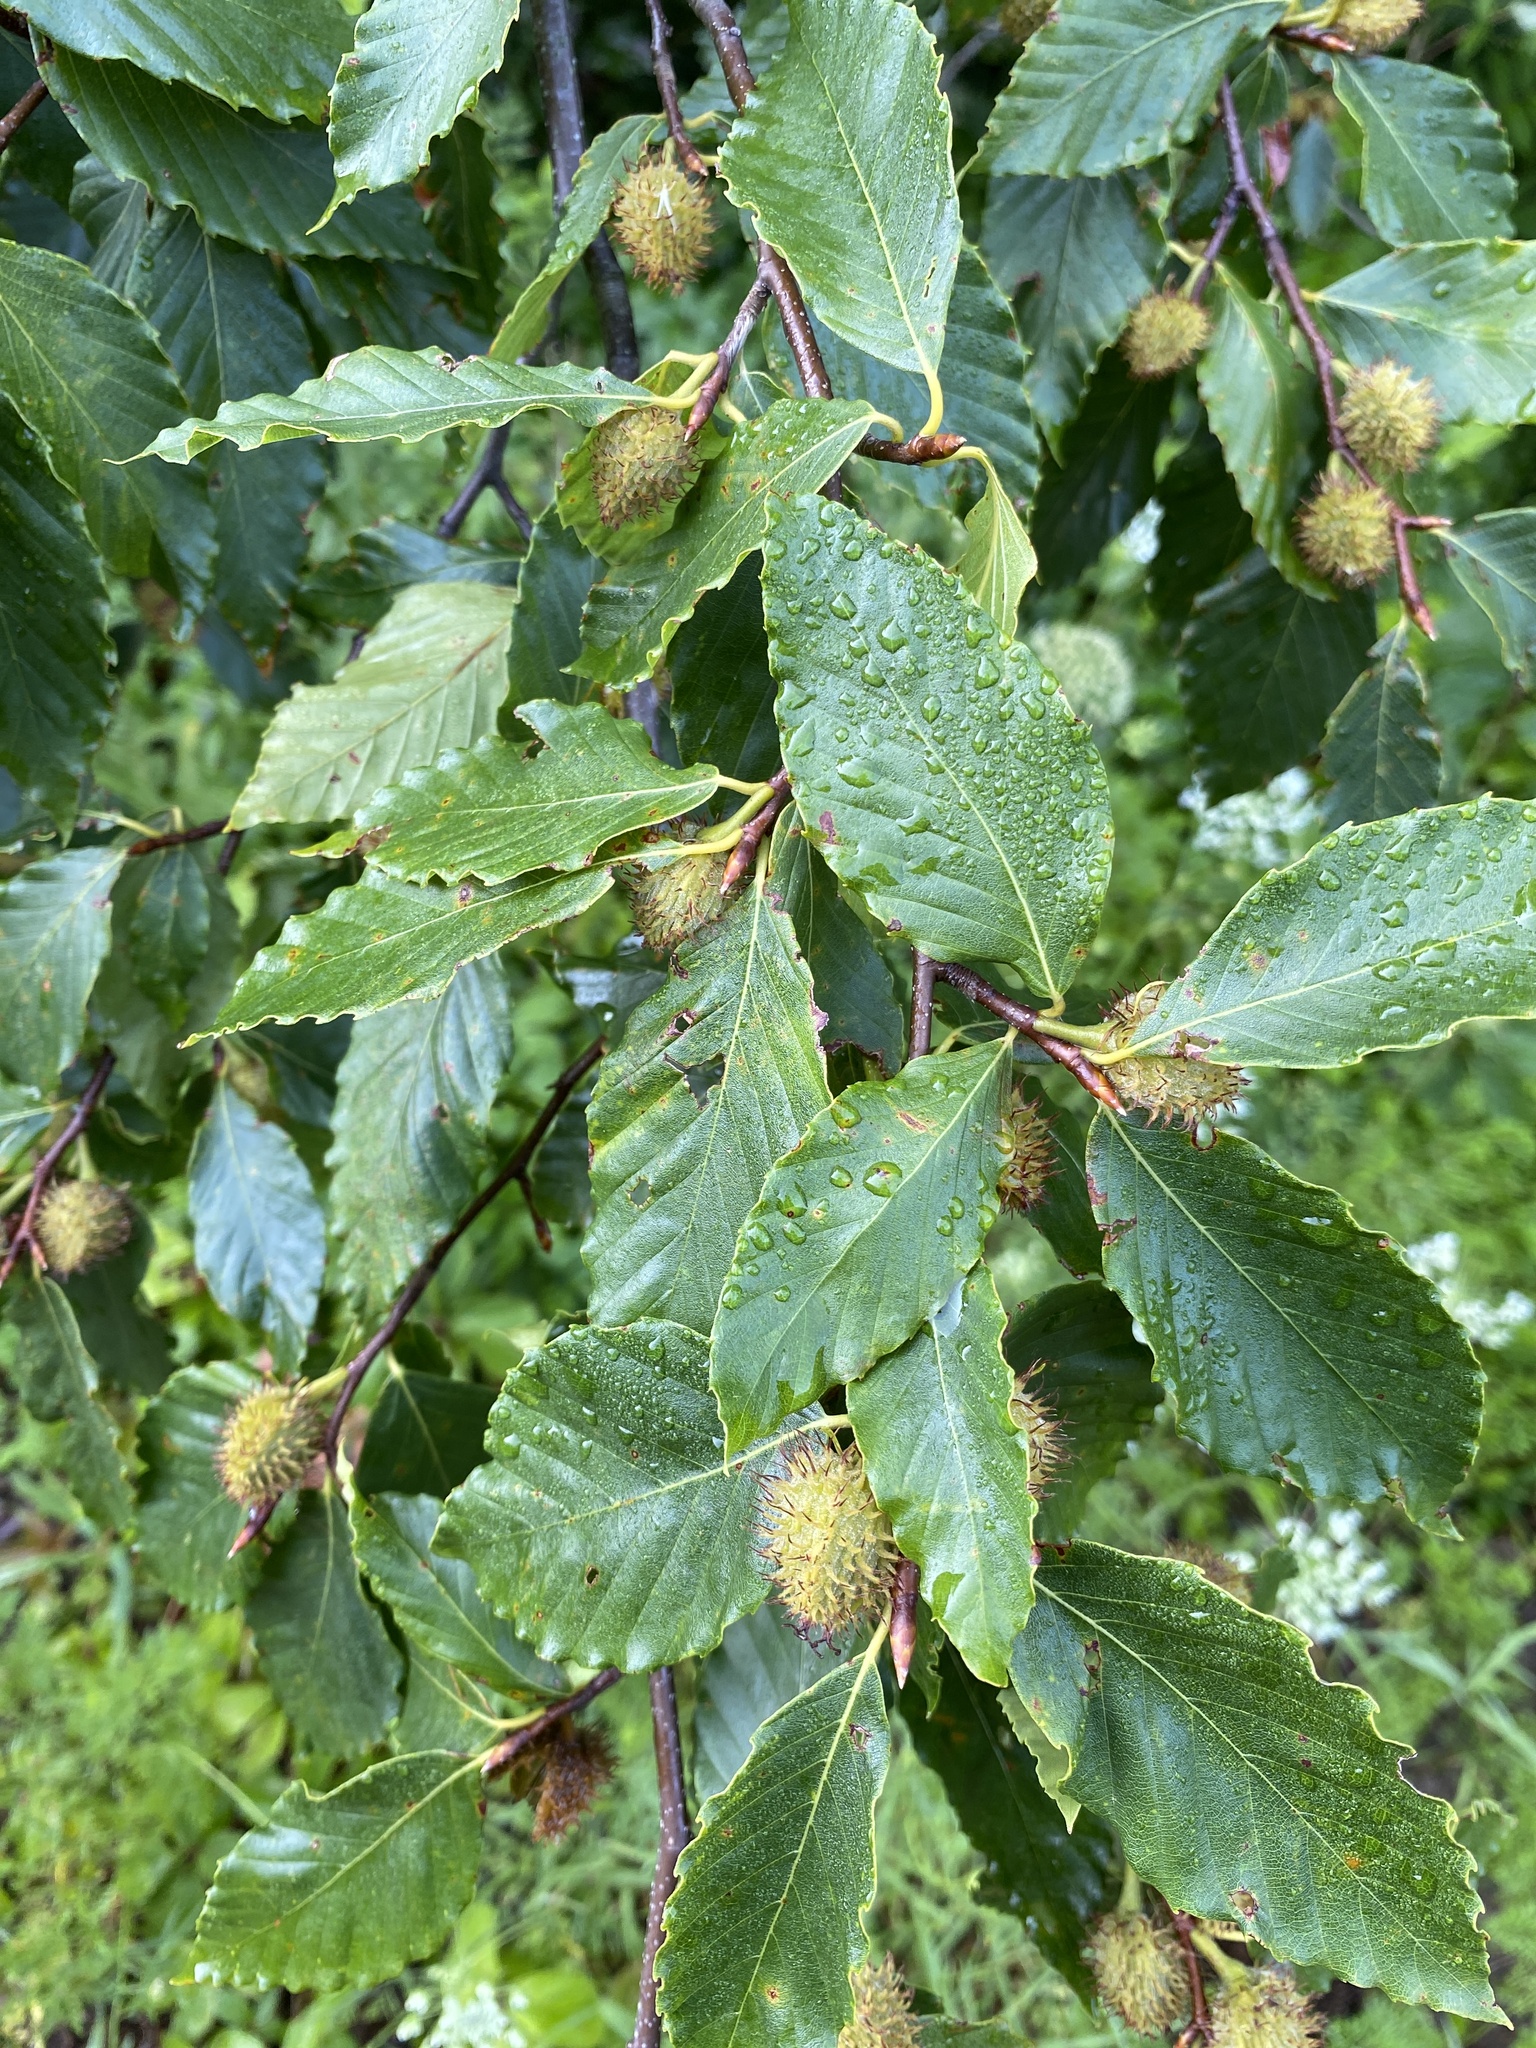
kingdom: Plantae
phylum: Tracheophyta
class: Magnoliopsida
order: Fagales
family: Fagaceae
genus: Fagus
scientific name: Fagus grandifolia
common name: American beech
